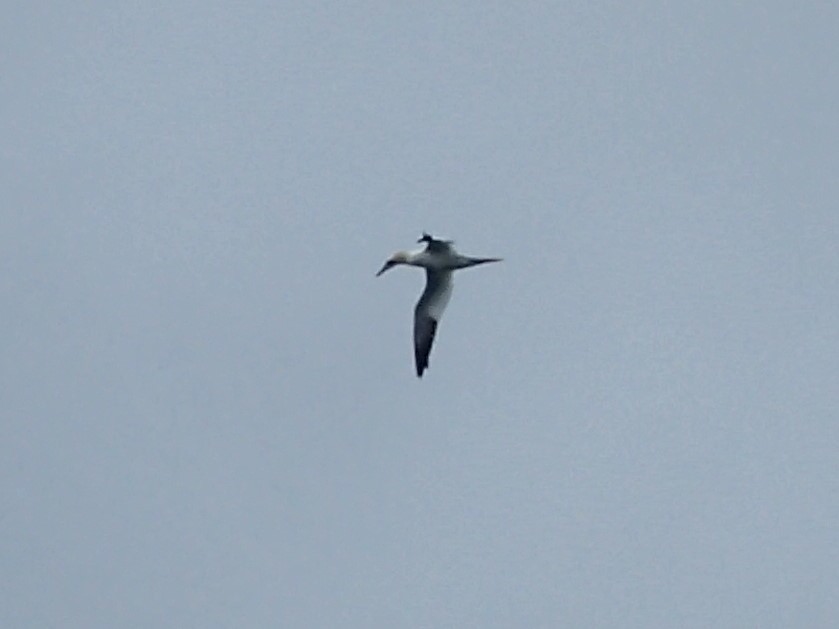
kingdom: Animalia
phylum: Chordata
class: Aves
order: Suliformes
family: Sulidae
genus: Morus
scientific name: Morus bassanus
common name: Northern gannet
